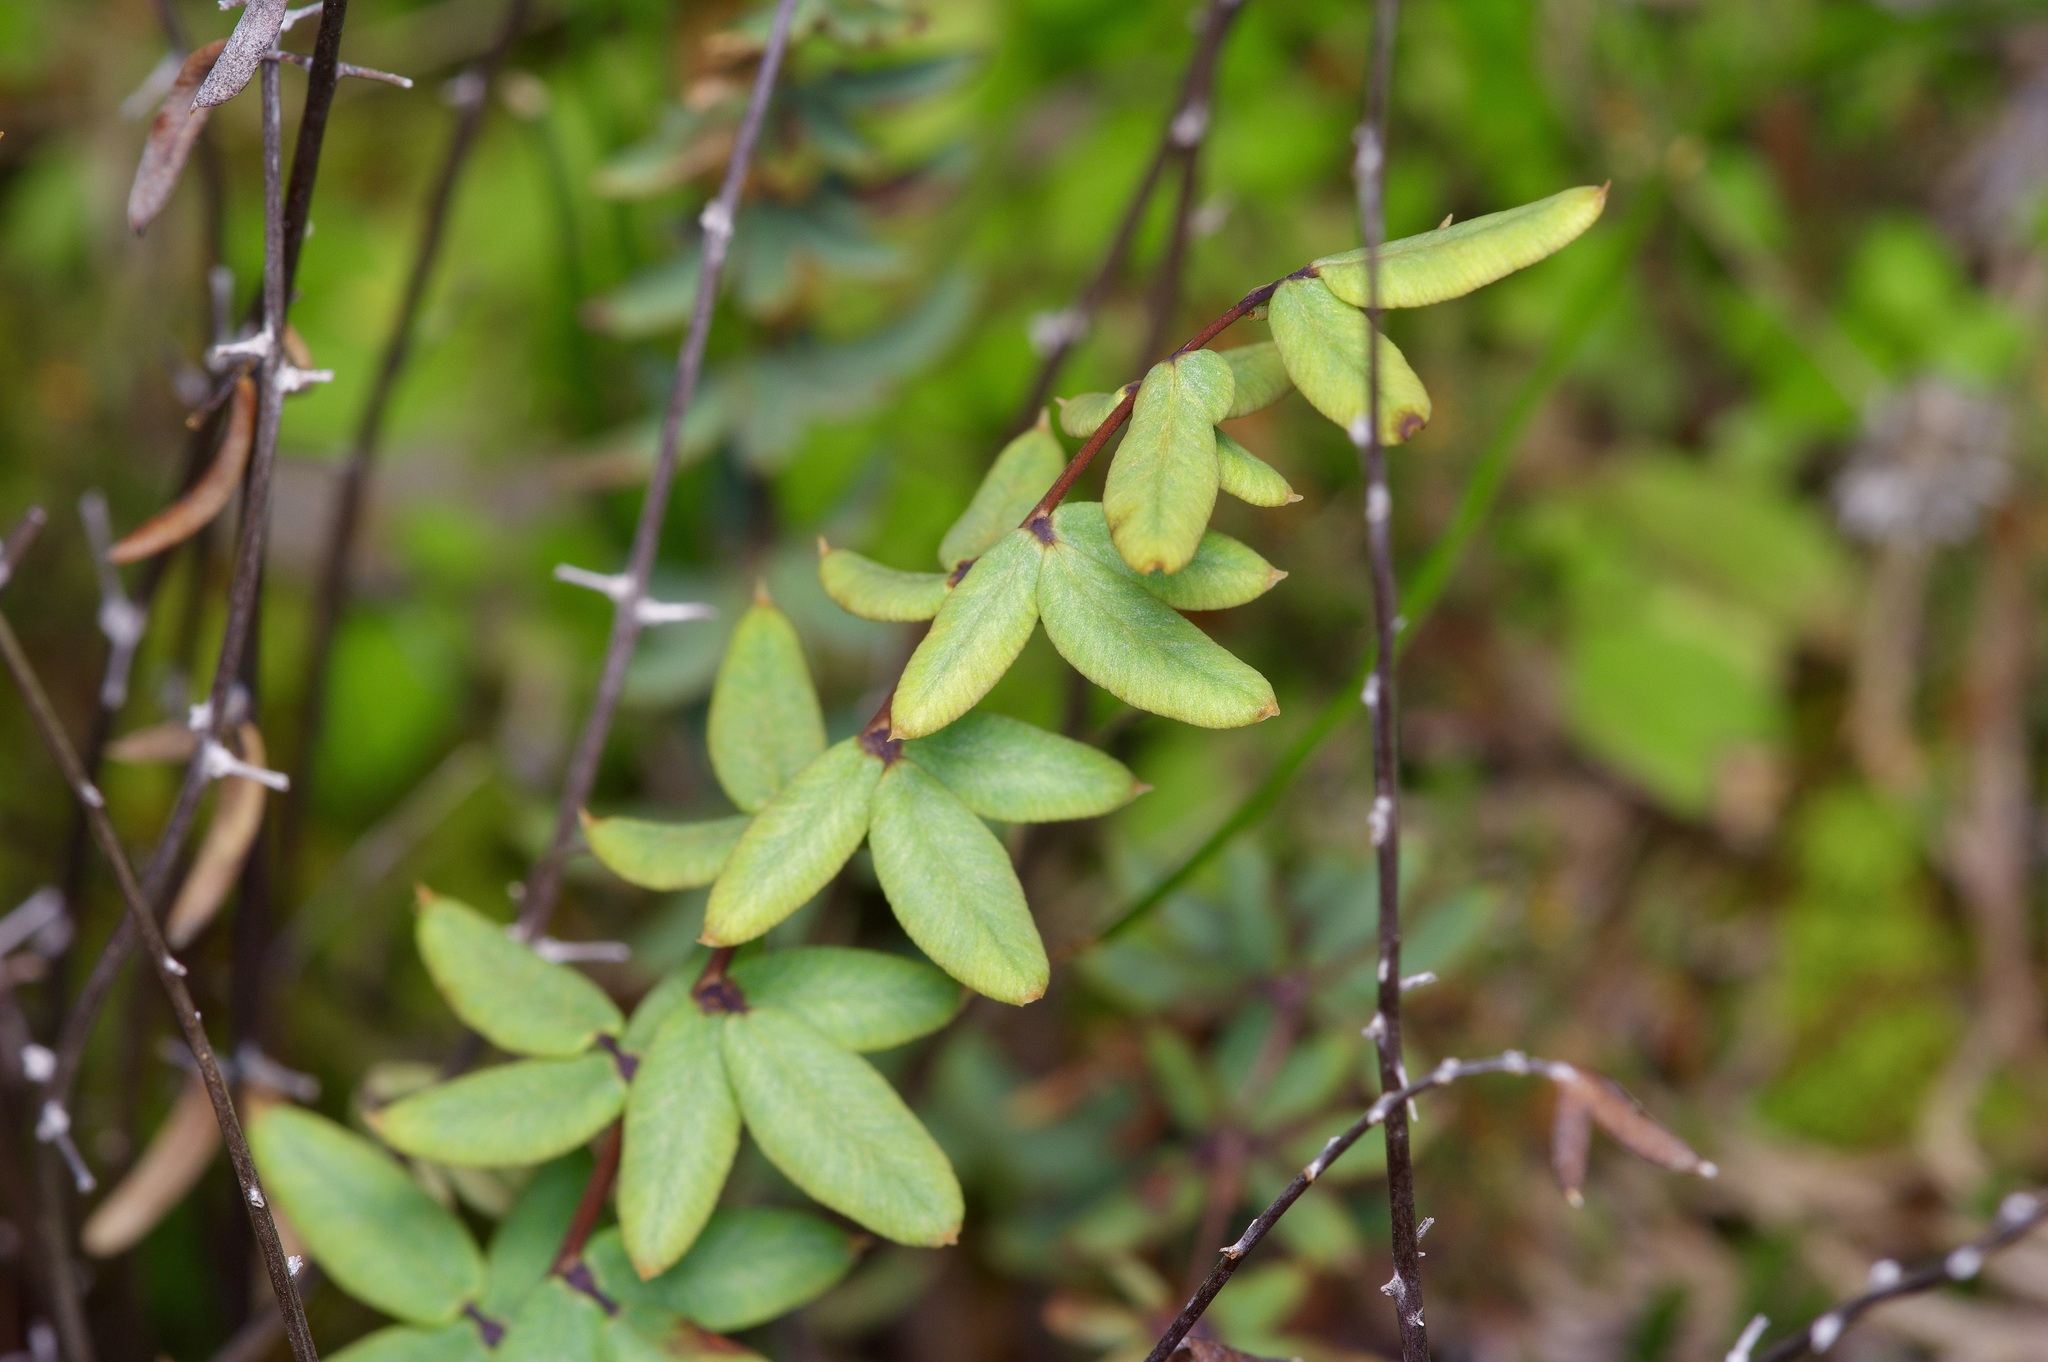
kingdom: Plantae
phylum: Tracheophyta
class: Polypodiopsida
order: Polypodiales
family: Pteridaceae
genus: Pellaea
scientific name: Pellaea wrightiana
